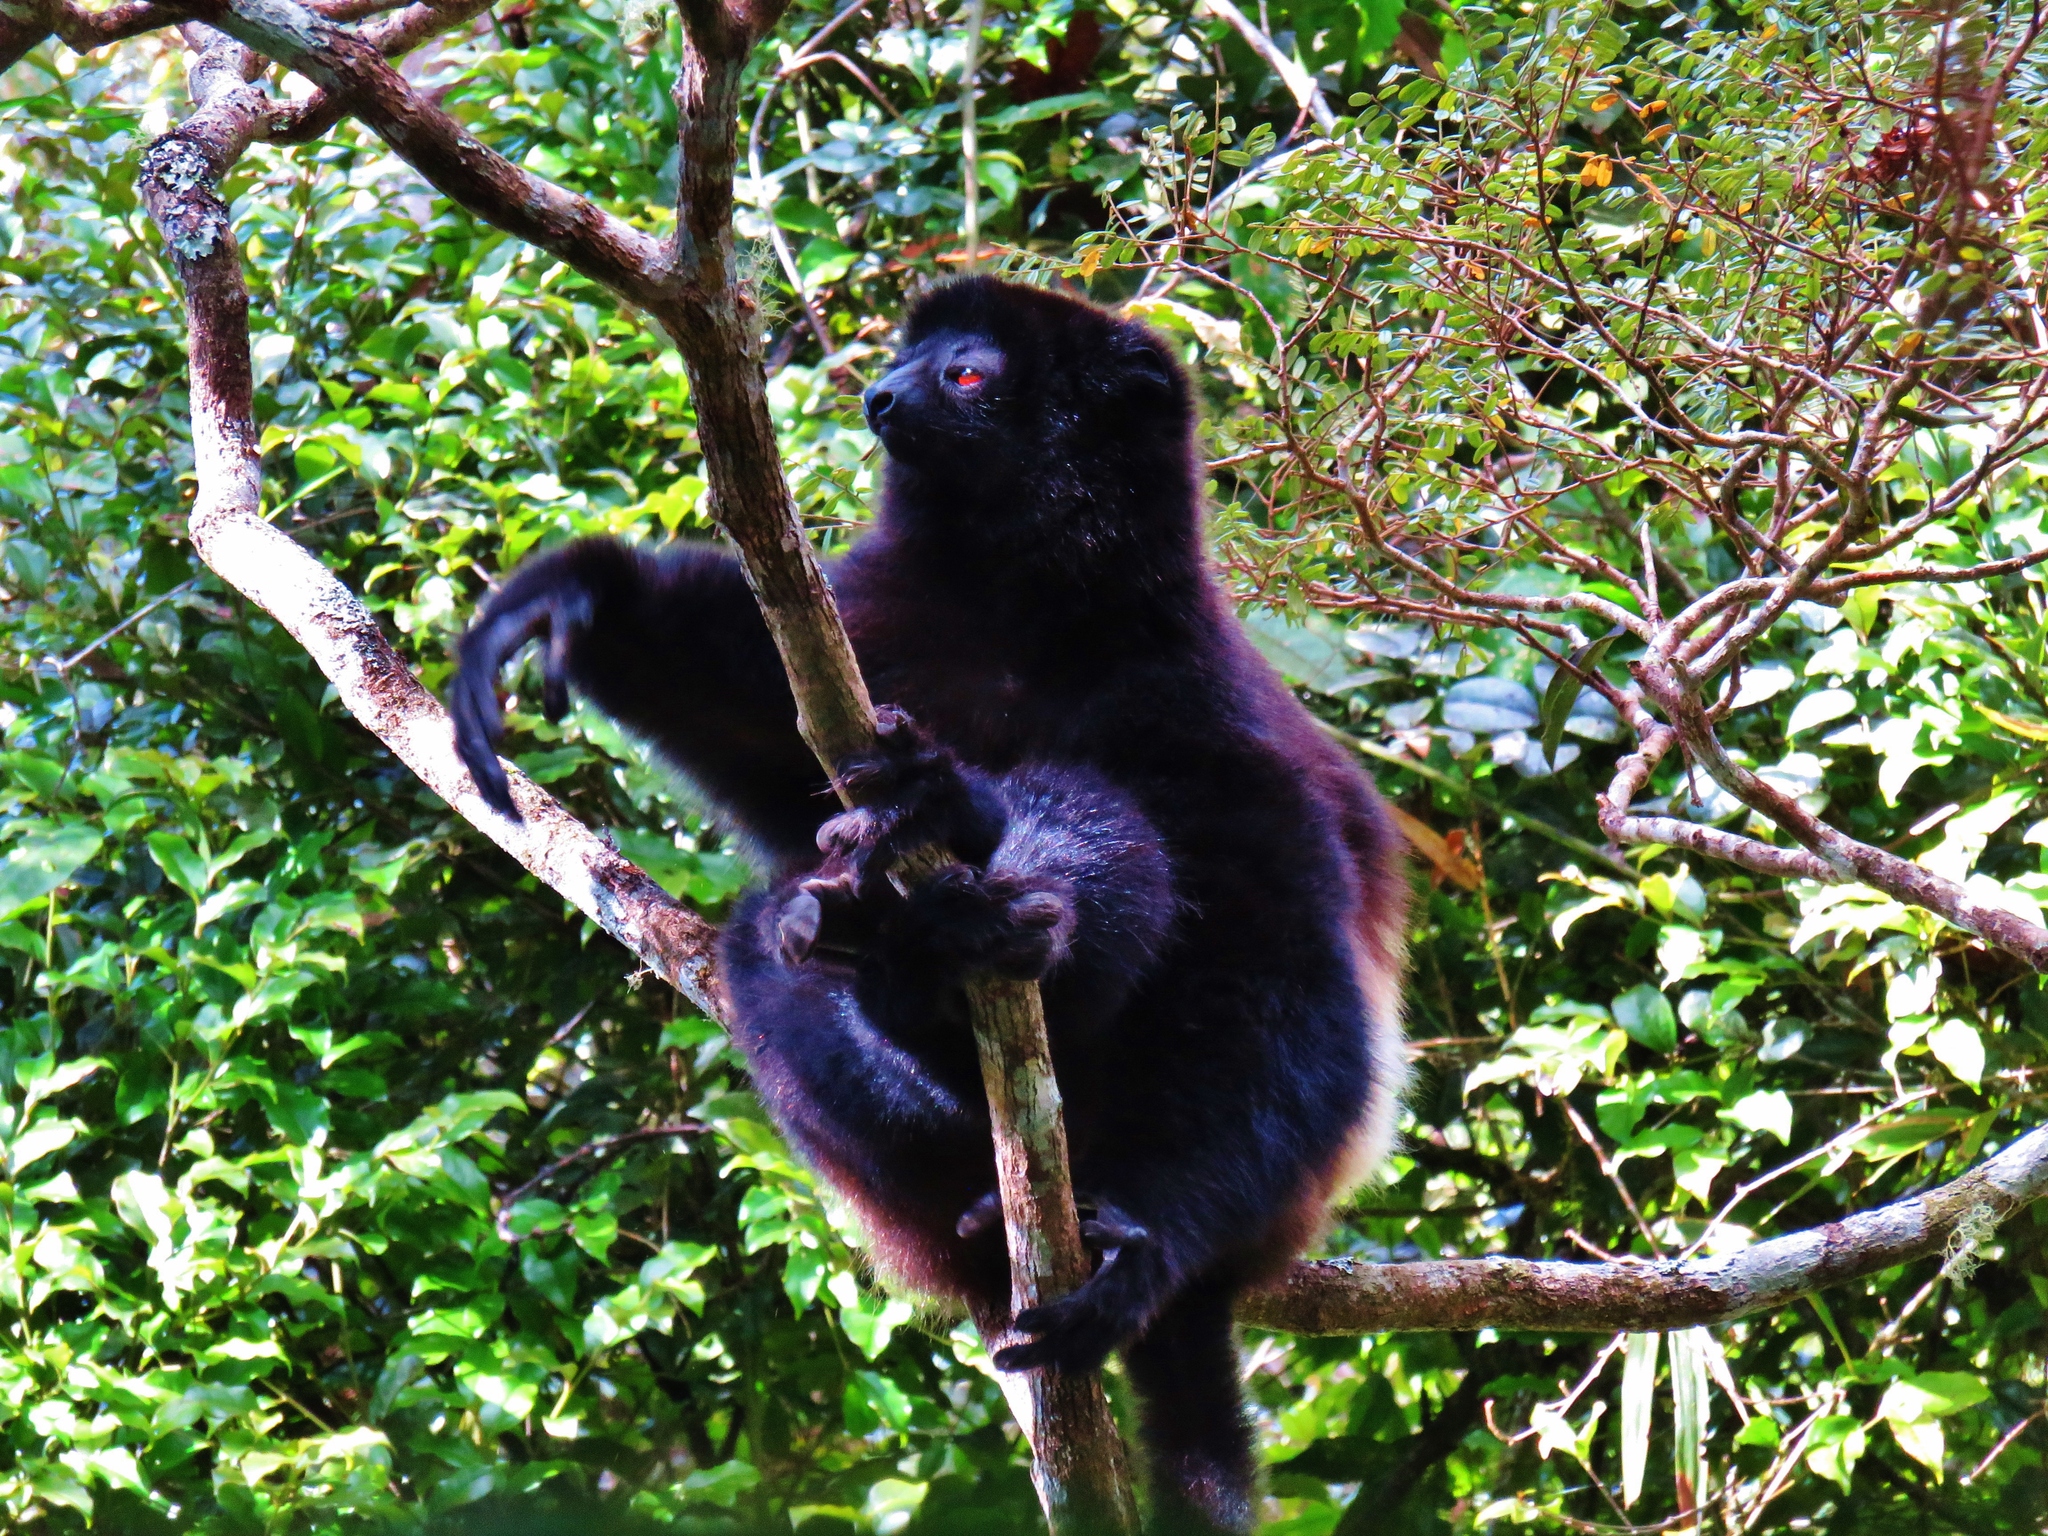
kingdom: Animalia
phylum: Chordata
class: Mammalia
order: Primates
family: Indriidae
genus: Propithecus
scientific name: Propithecus edwardsi
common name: Milne-edwards’s simpona
